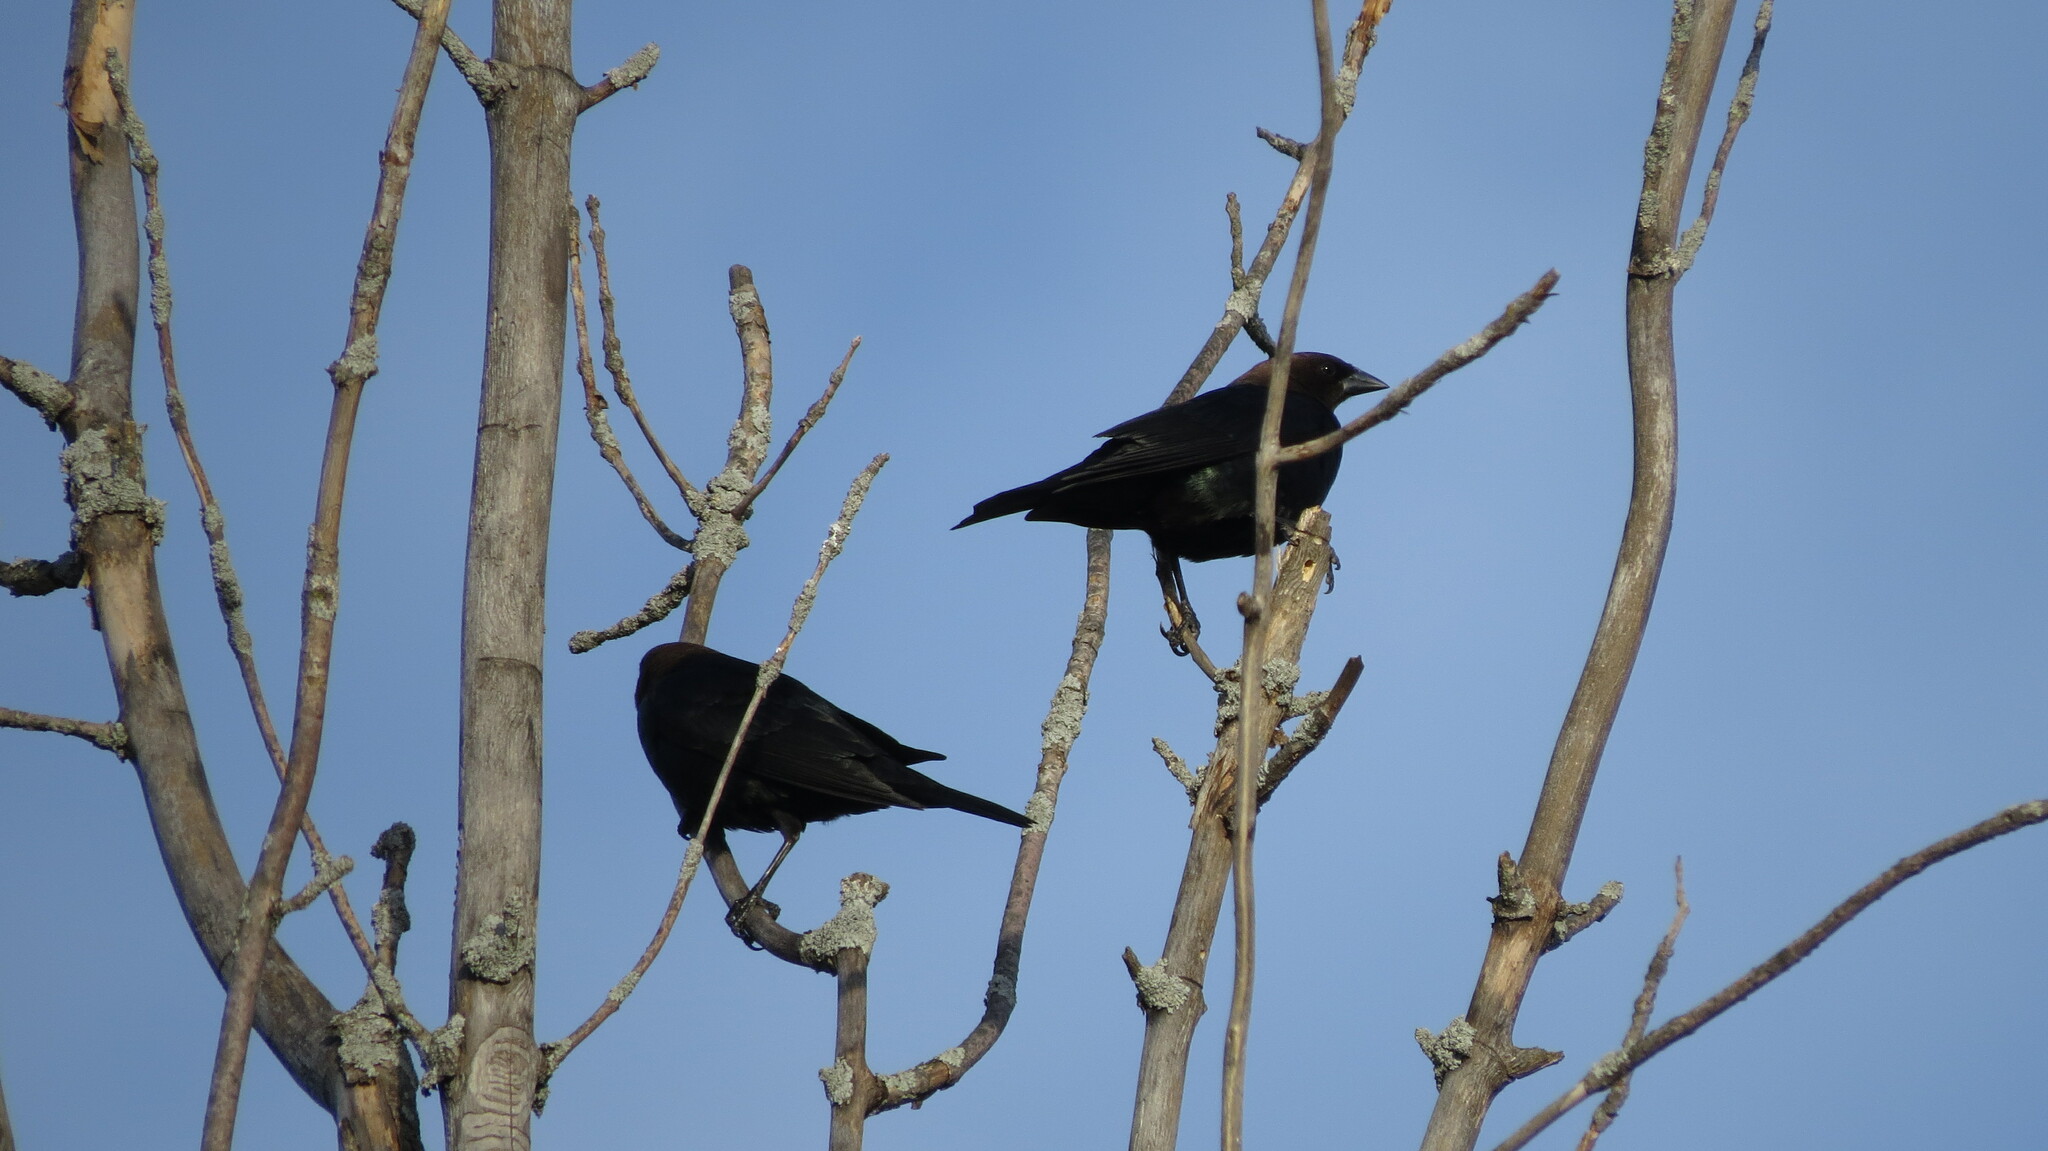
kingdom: Animalia
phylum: Chordata
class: Aves
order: Passeriformes
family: Icteridae
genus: Molothrus
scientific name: Molothrus ater
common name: Brown-headed cowbird
